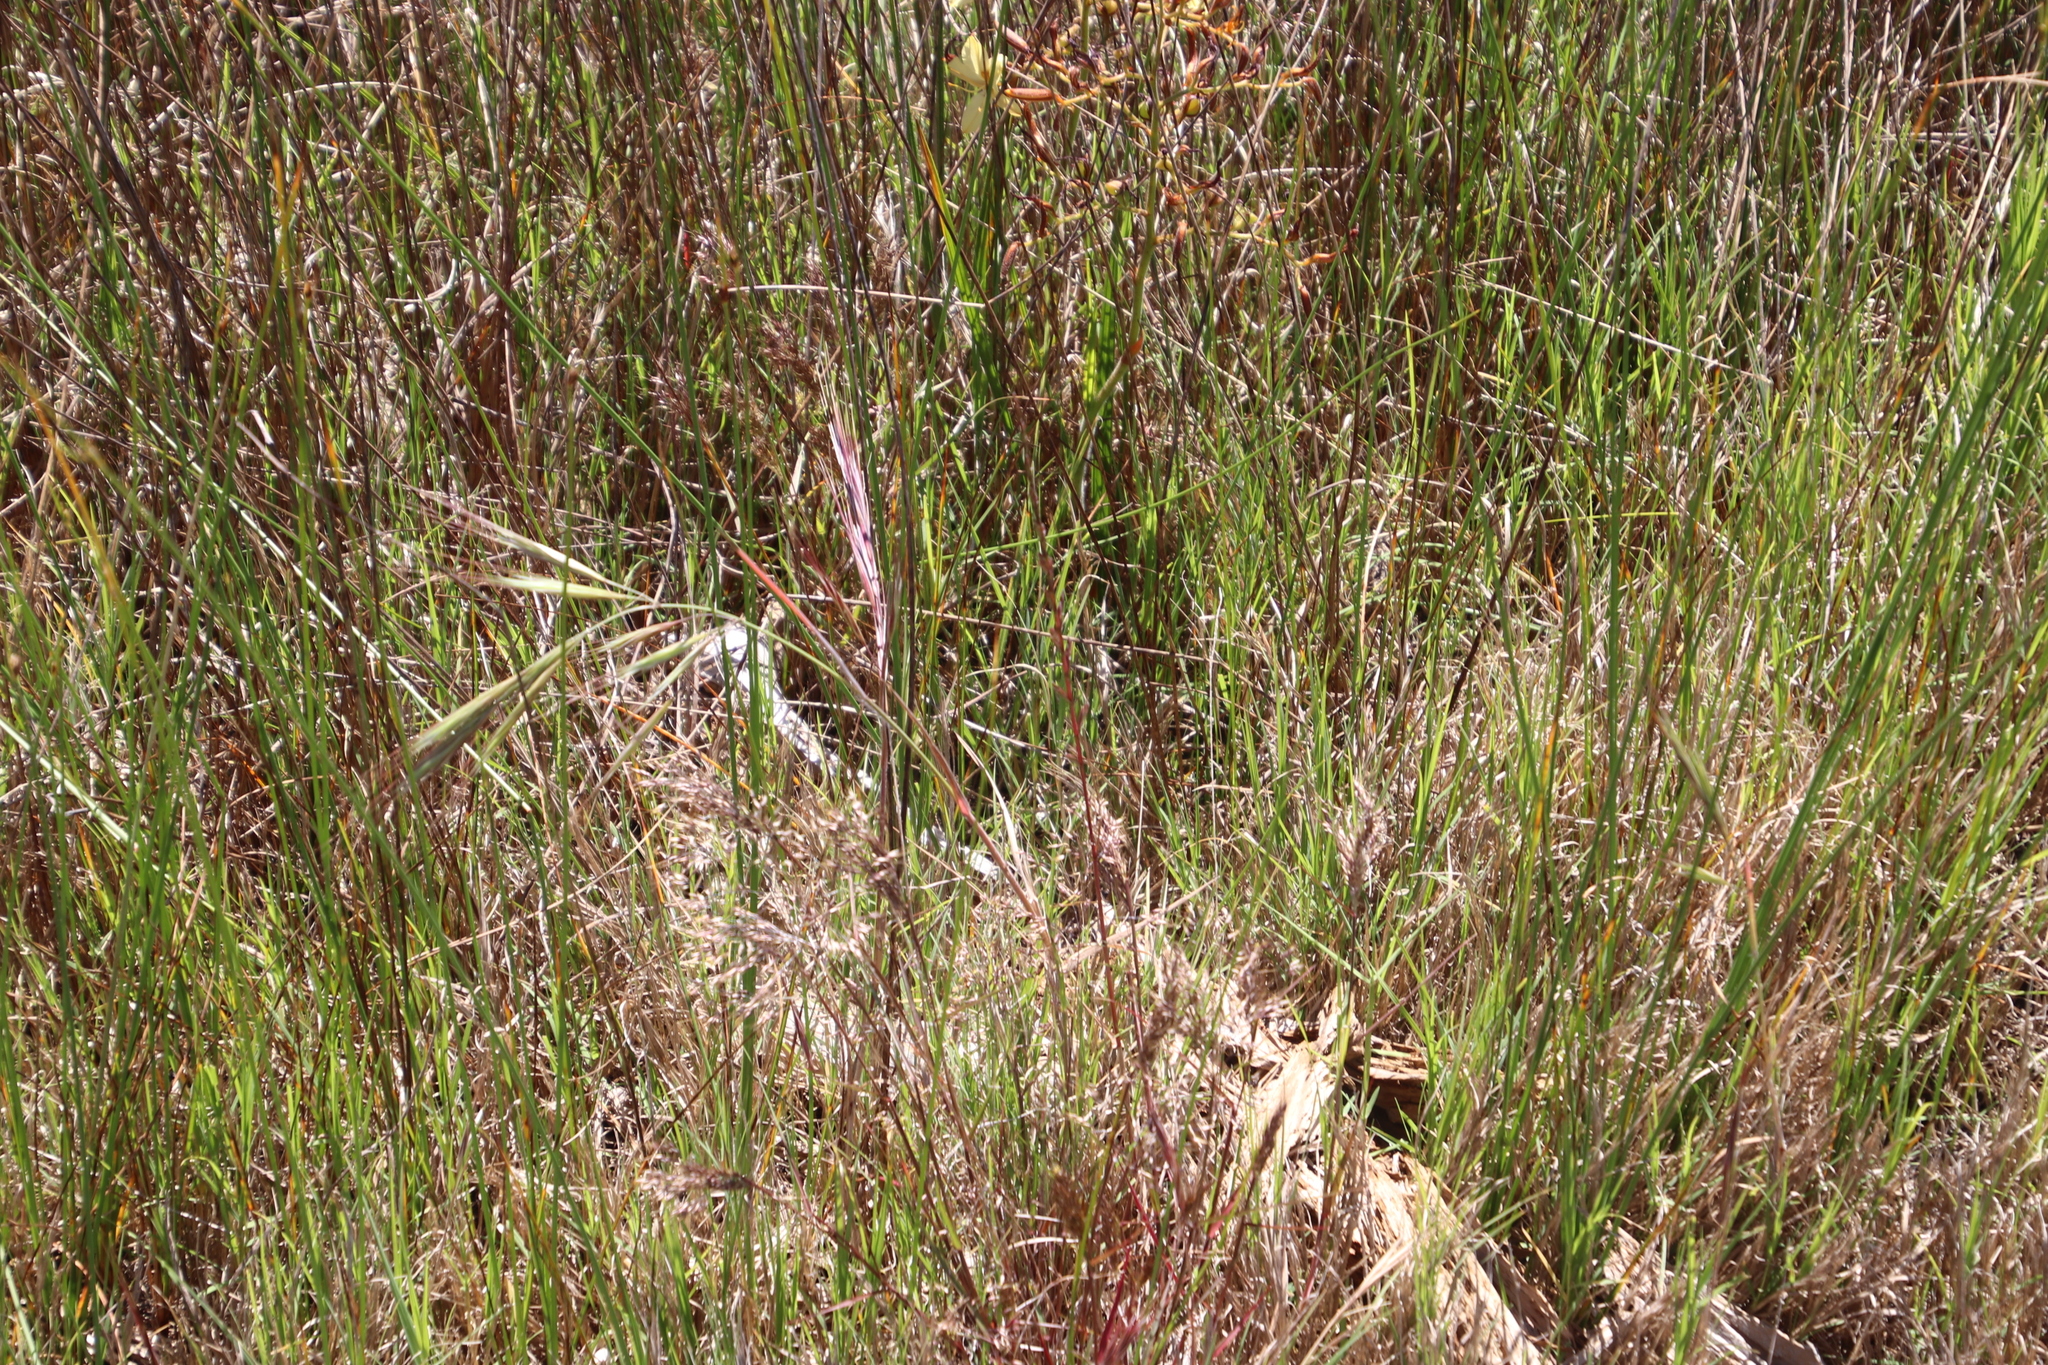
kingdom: Plantae
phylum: Tracheophyta
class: Liliopsida
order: Poales
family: Poaceae
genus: Bromus
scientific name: Bromus diandrus
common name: Ripgut brome
